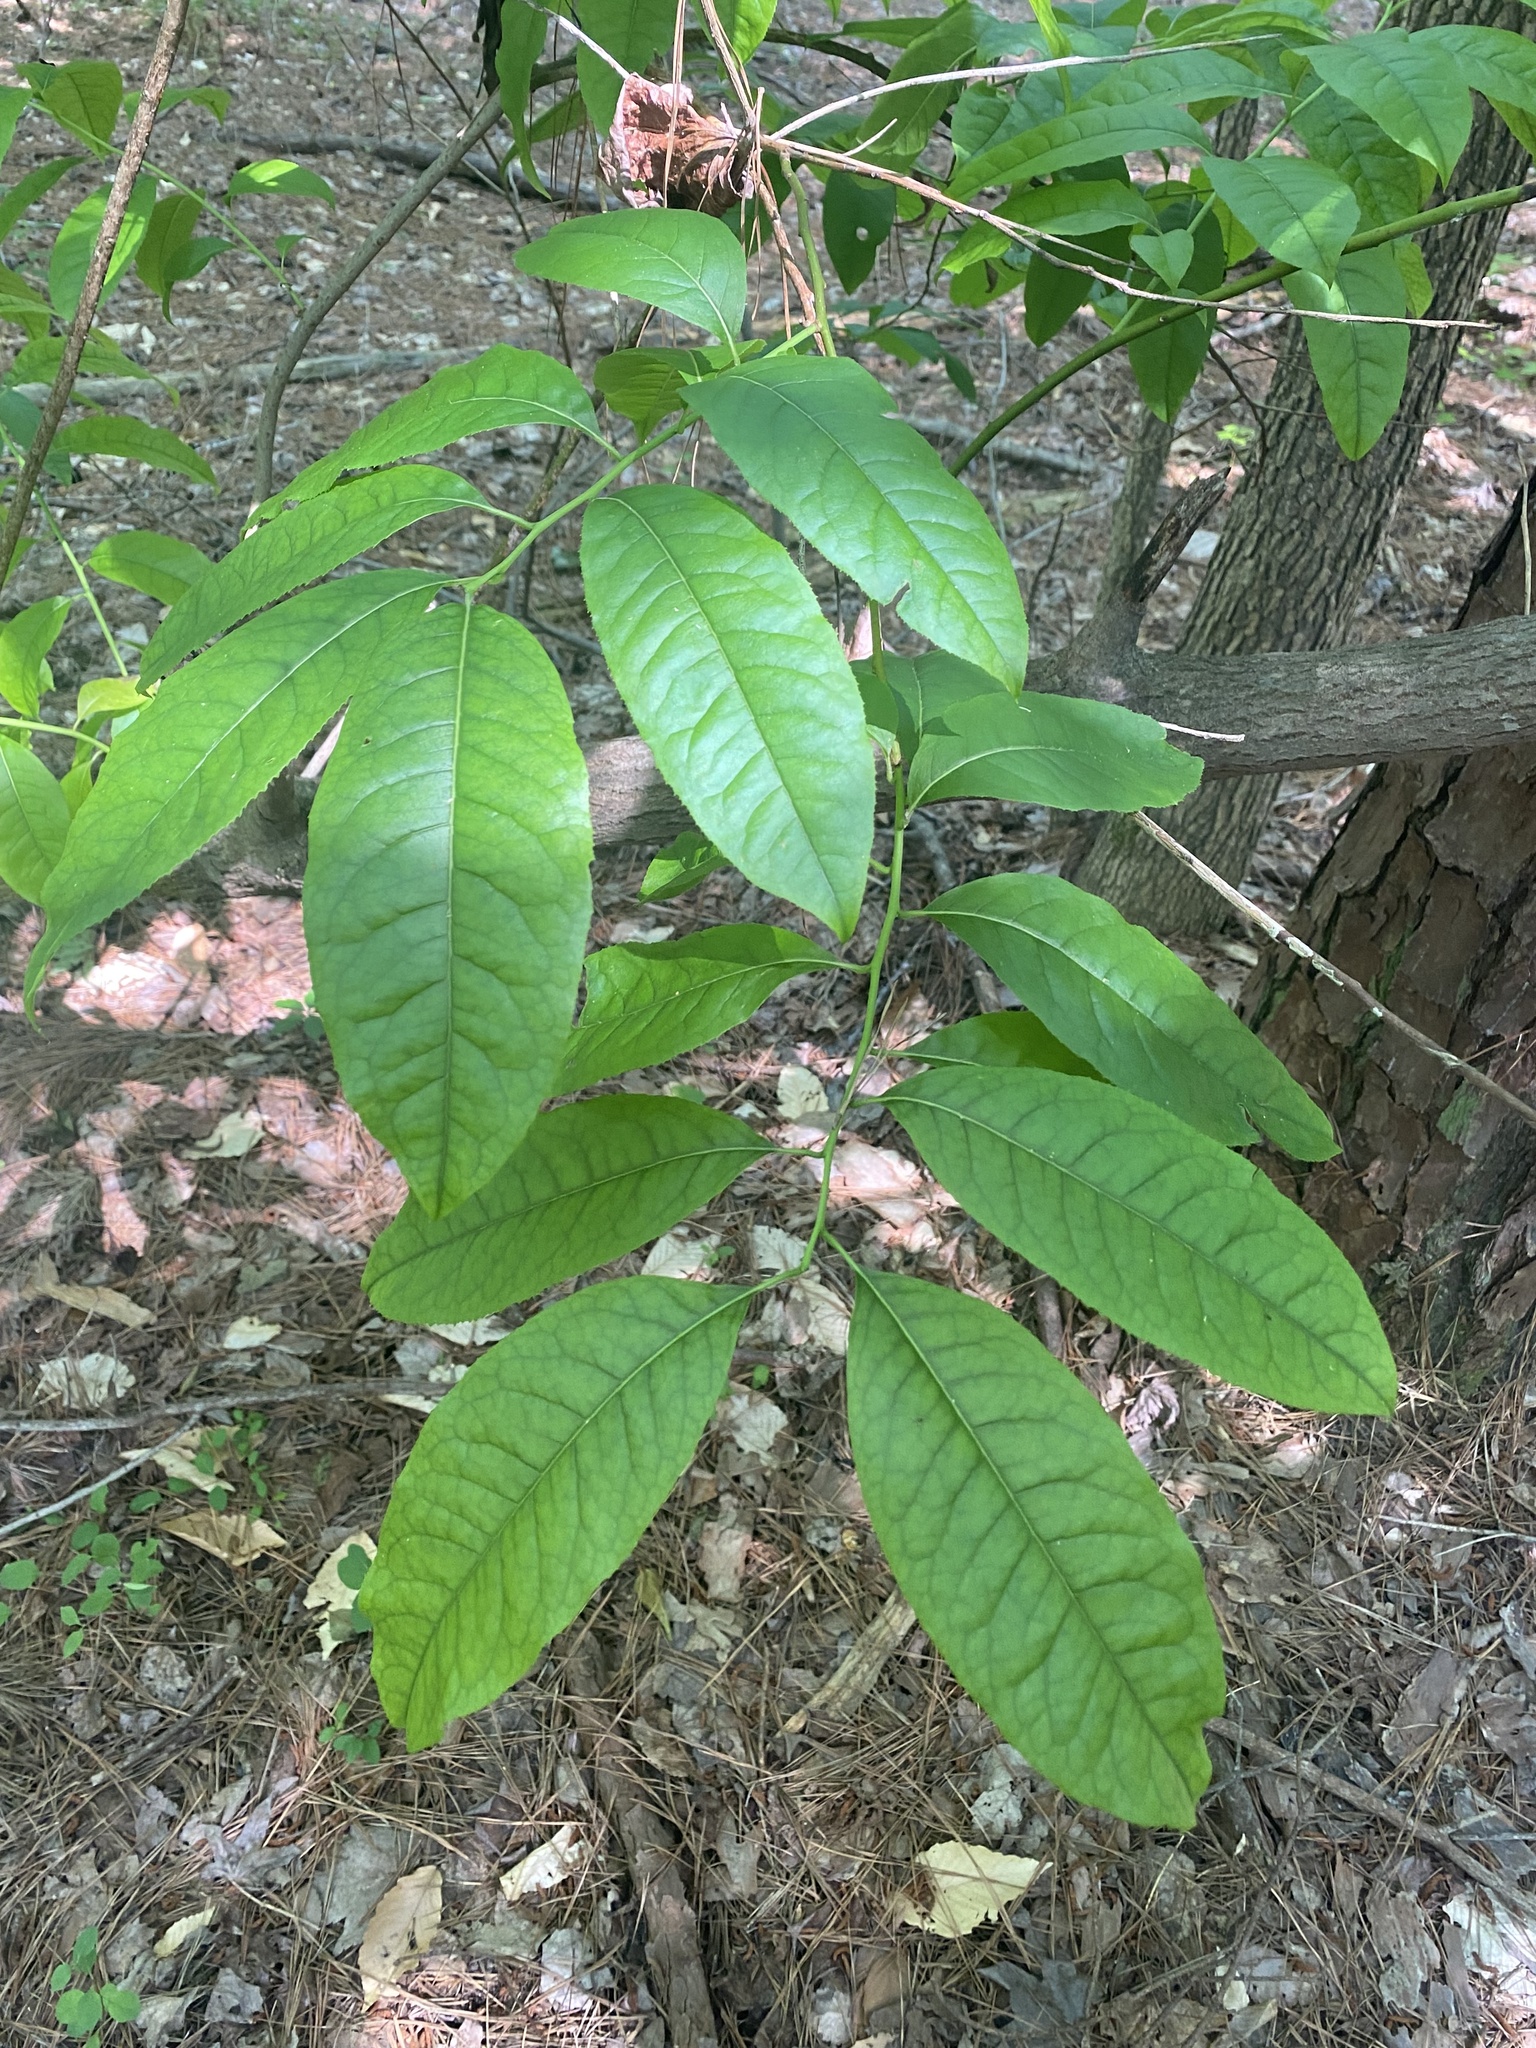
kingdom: Plantae
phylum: Tracheophyta
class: Magnoliopsida
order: Ericales
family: Ericaceae
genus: Oxydendrum
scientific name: Oxydendrum arboreum
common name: Sourwood
